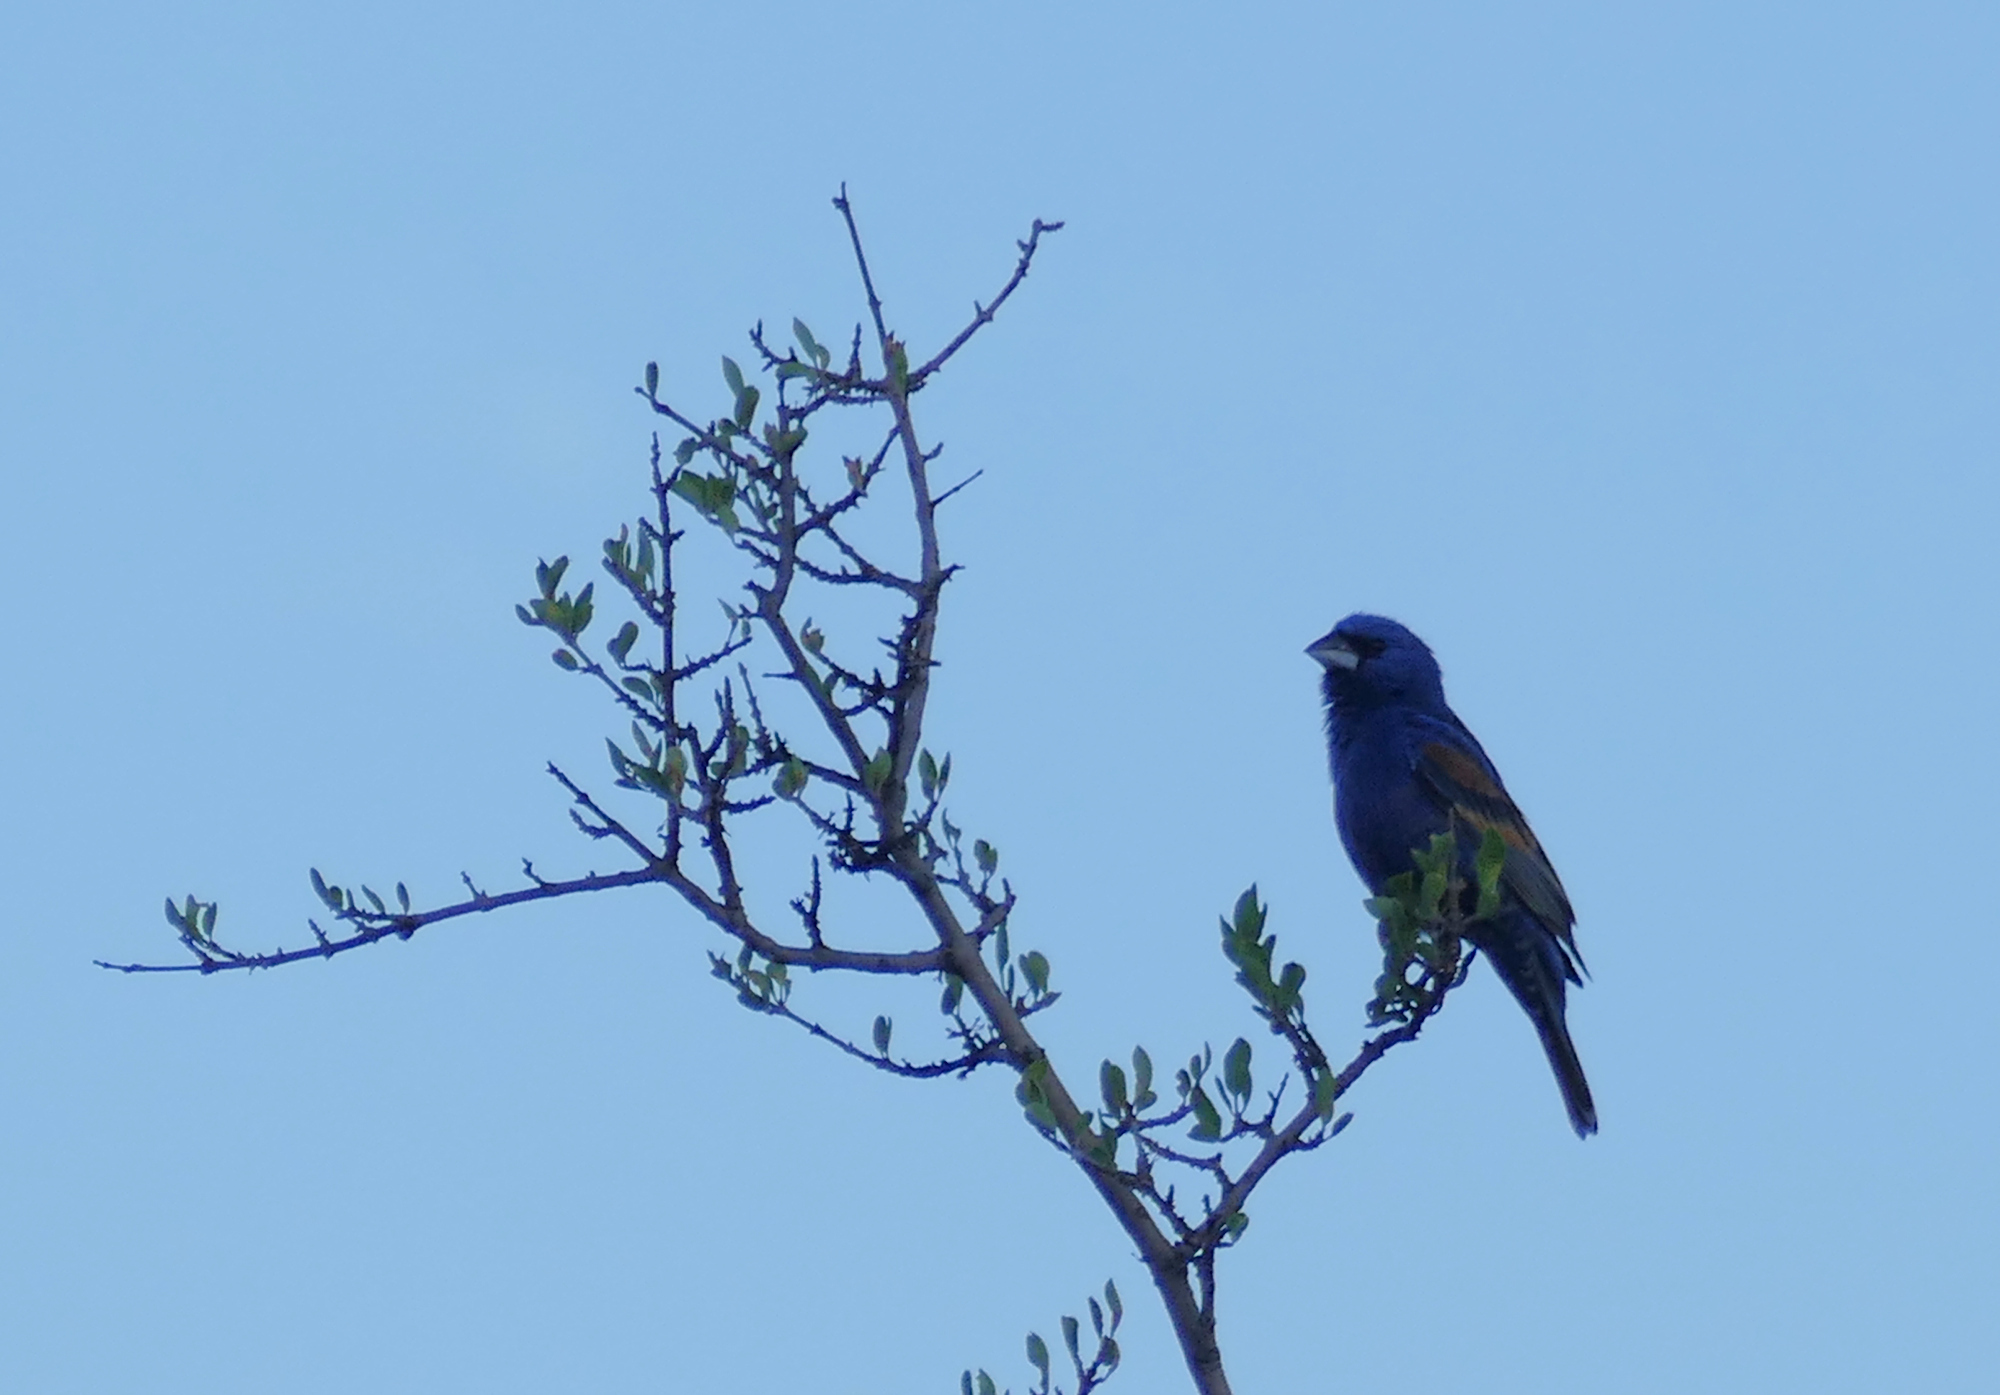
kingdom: Animalia
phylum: Chordata
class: Aves
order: Passeriformes
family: Cardinalidae
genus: Passerina
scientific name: Passerina caerulea
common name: Blue grosbeak
